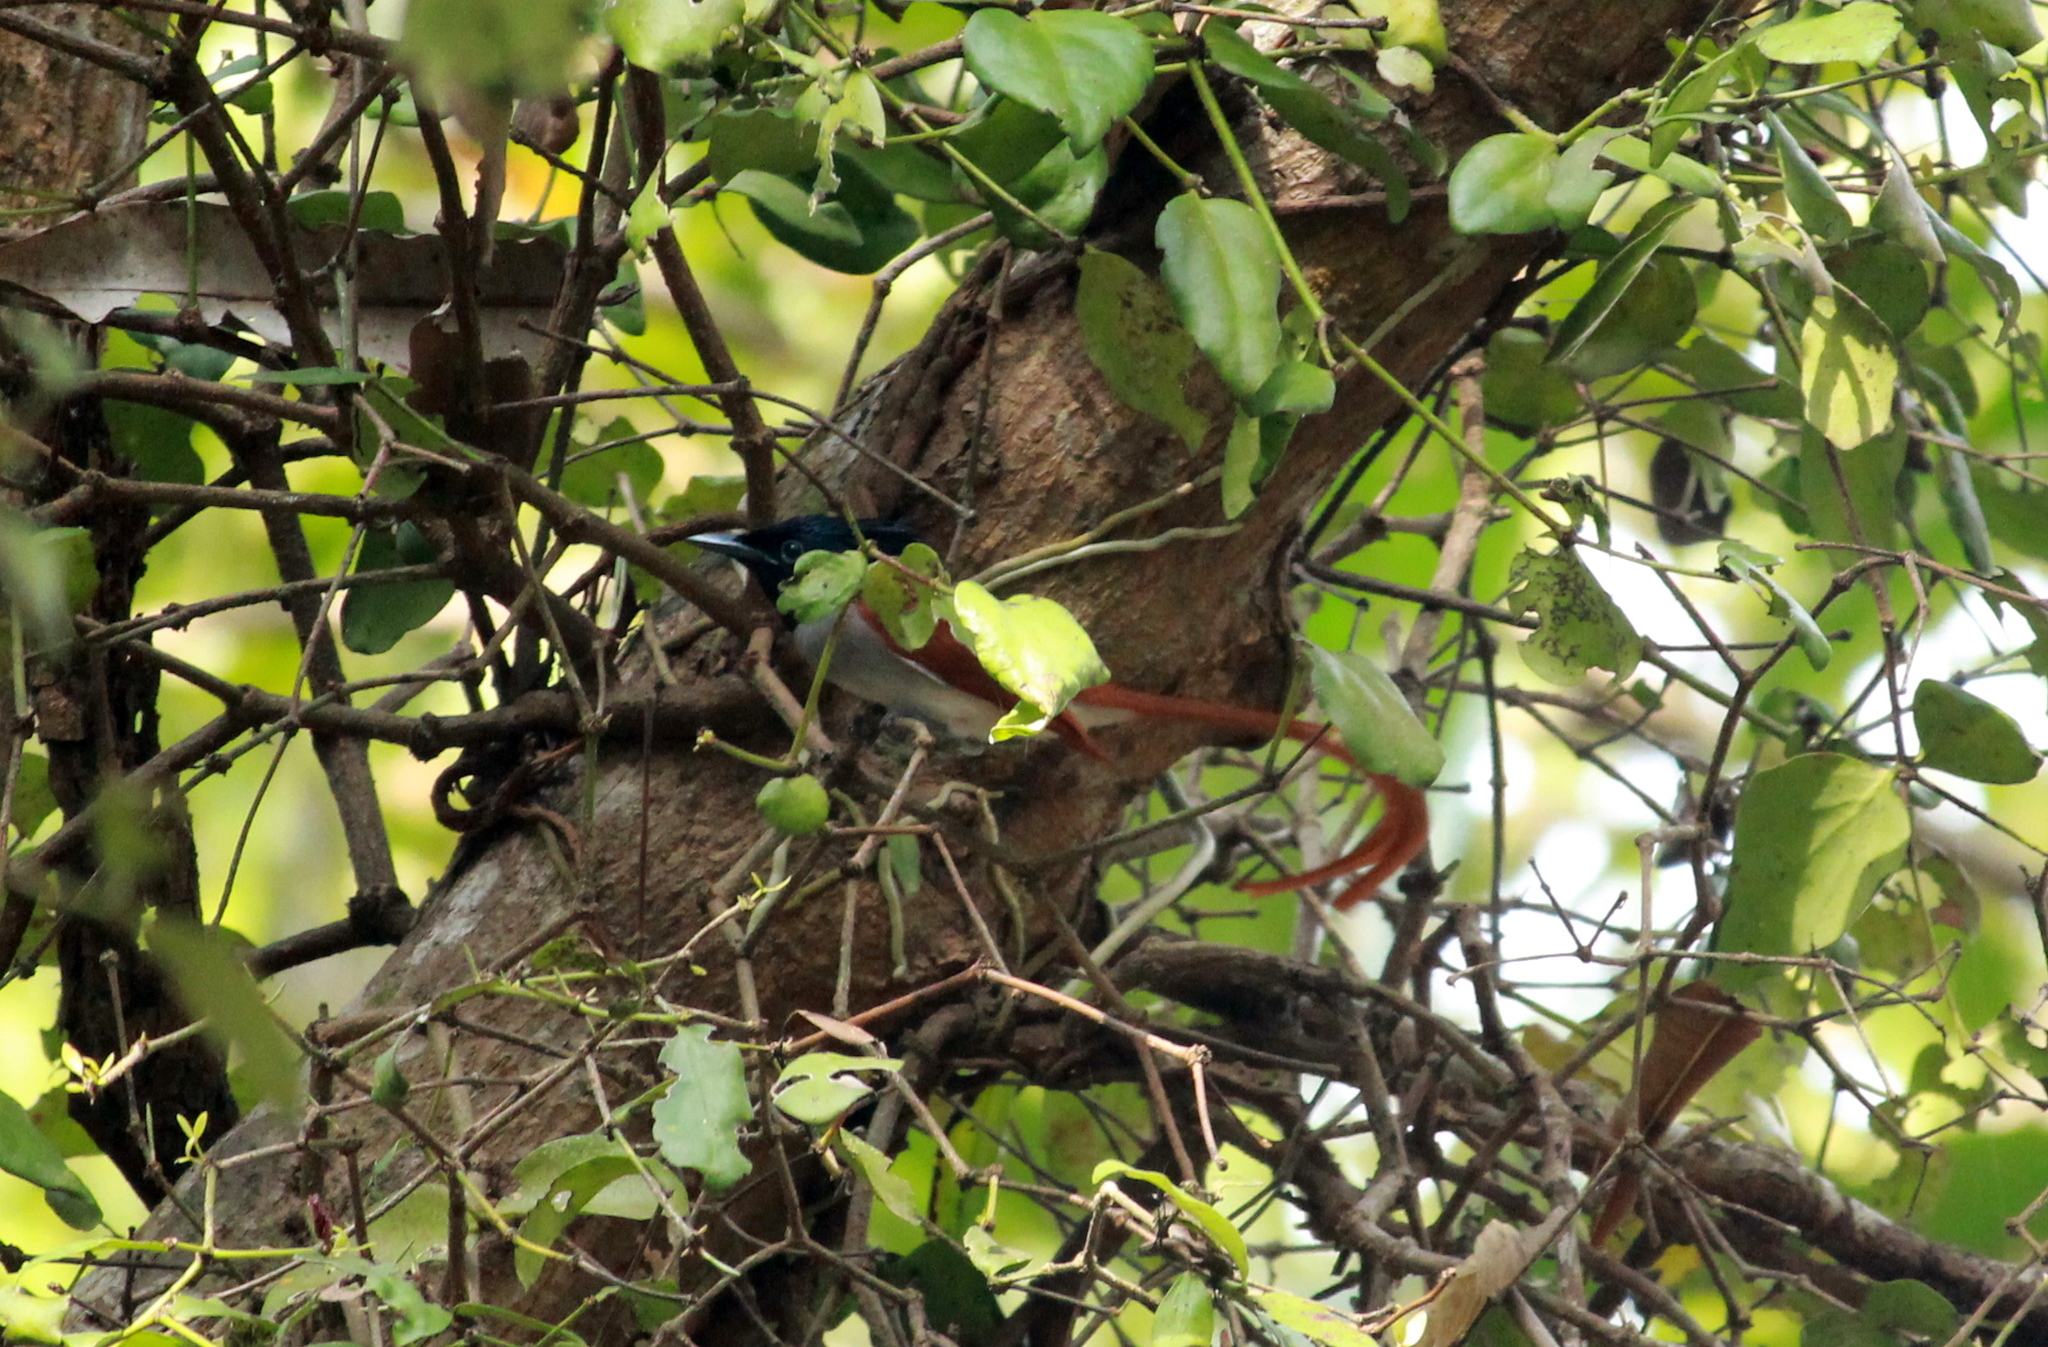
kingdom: Animalia
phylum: Chordata
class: Aves
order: Passeriformes
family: Monarchidae
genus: Terpsiphone
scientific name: Terpsiphone paradisi
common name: Indian paradise flycatcher
